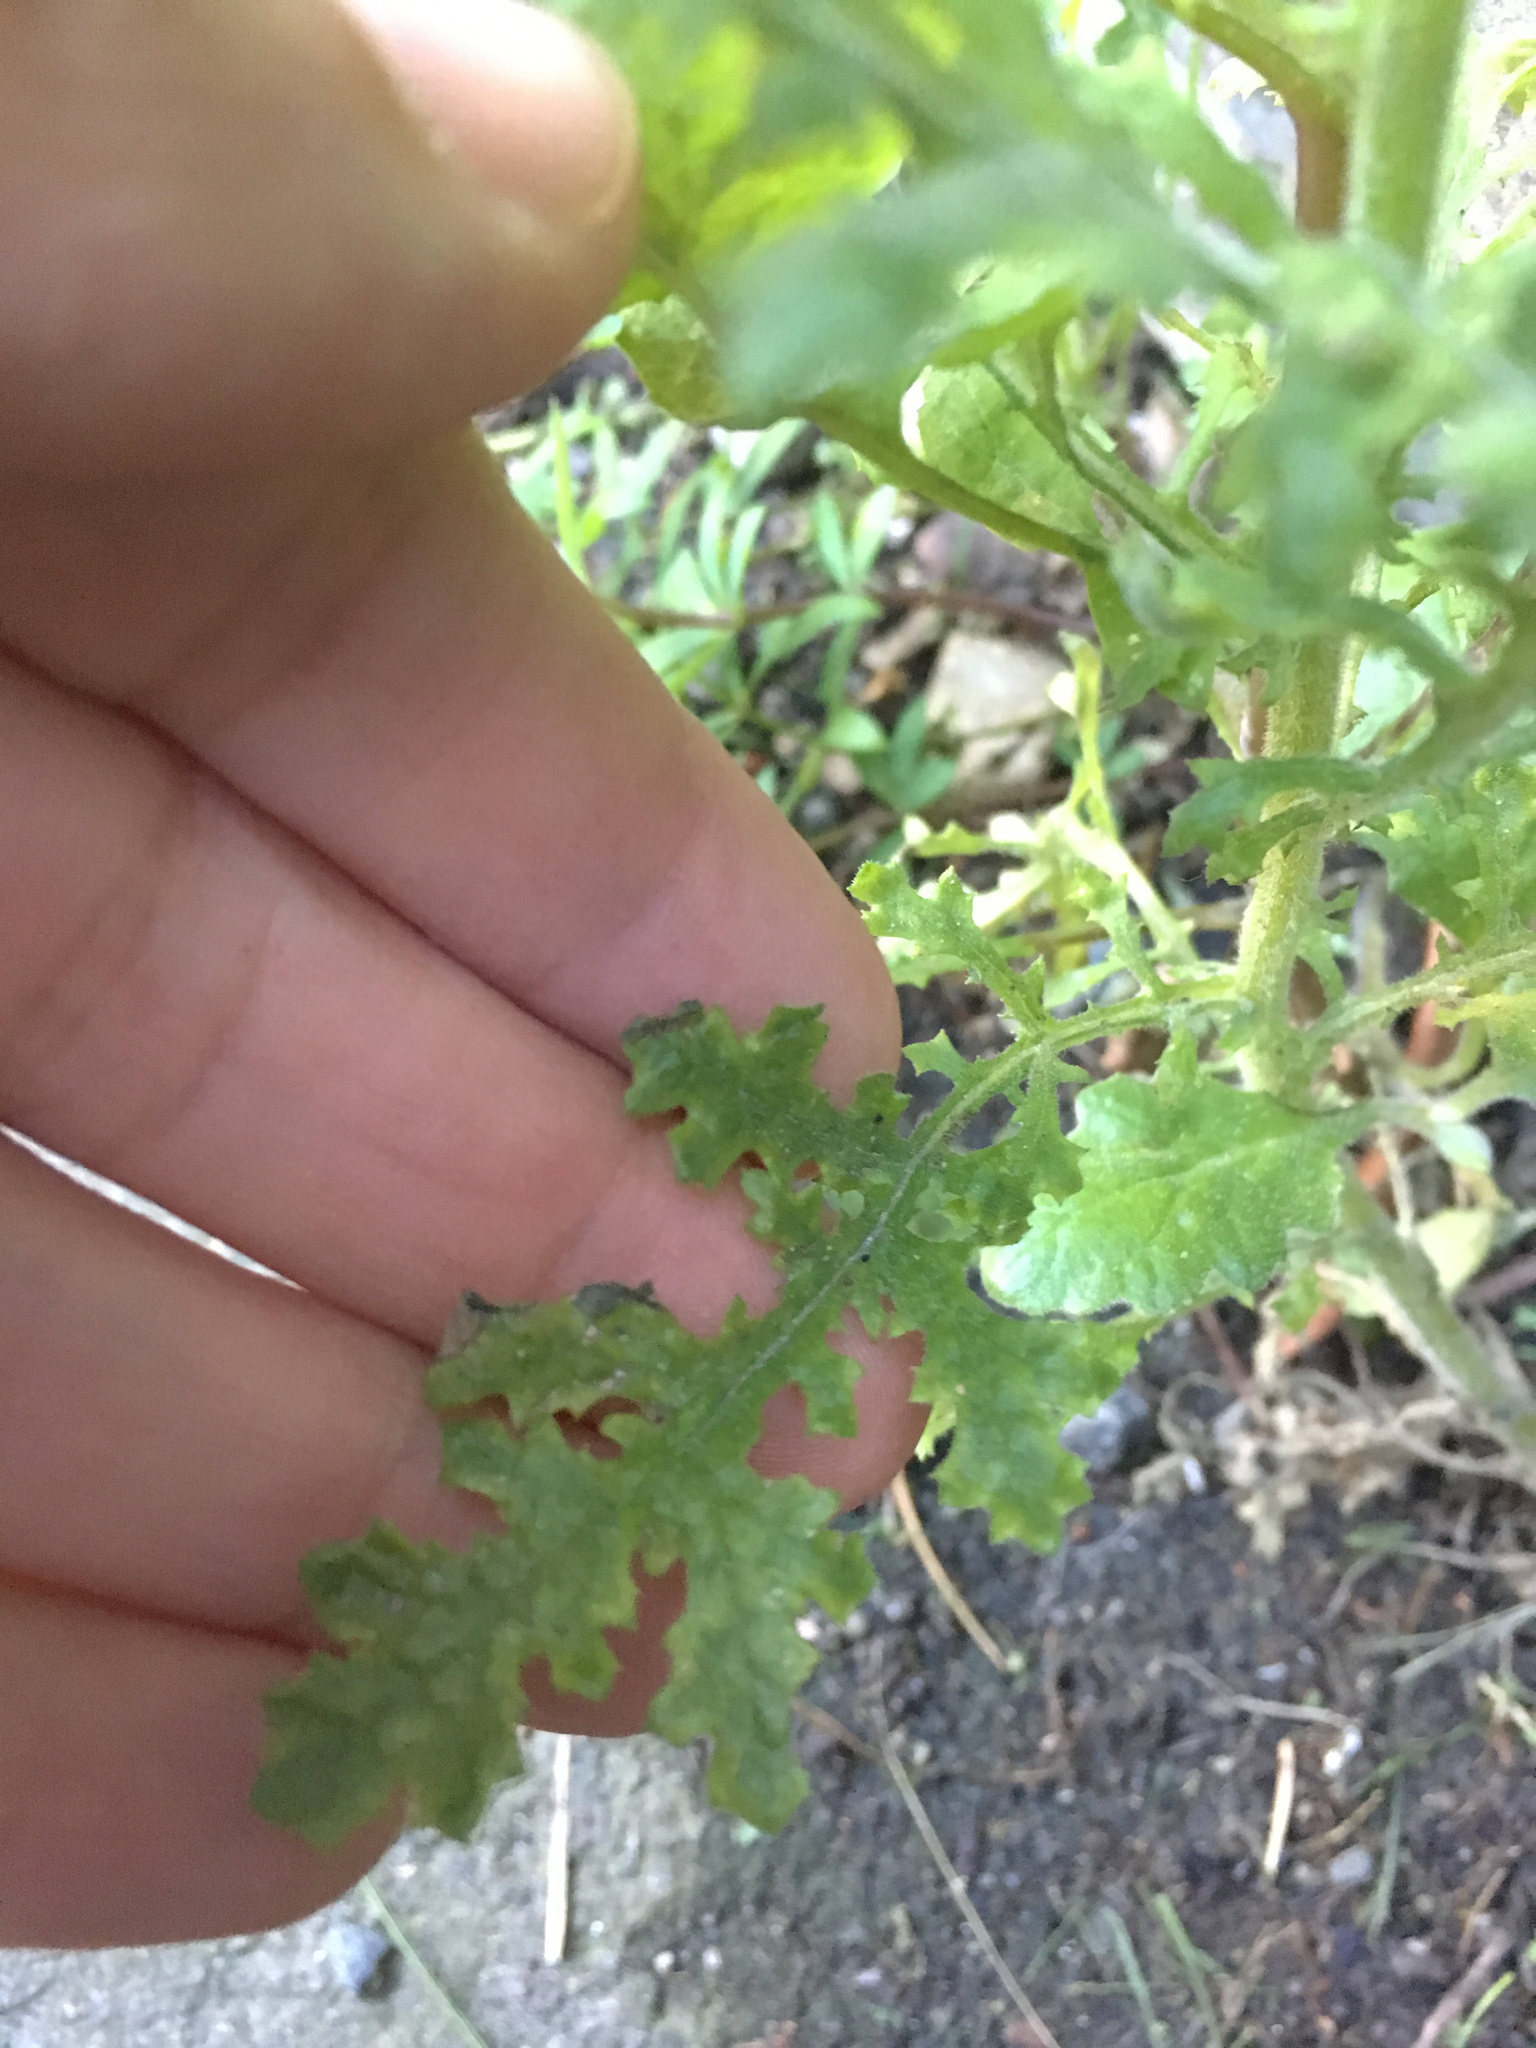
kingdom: Plantae
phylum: Tracheophyta
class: Magnoliopsida
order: Asterales
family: Asteraceae
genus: Senecio
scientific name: Senecio sylvaticus
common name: Woodland ragwort
